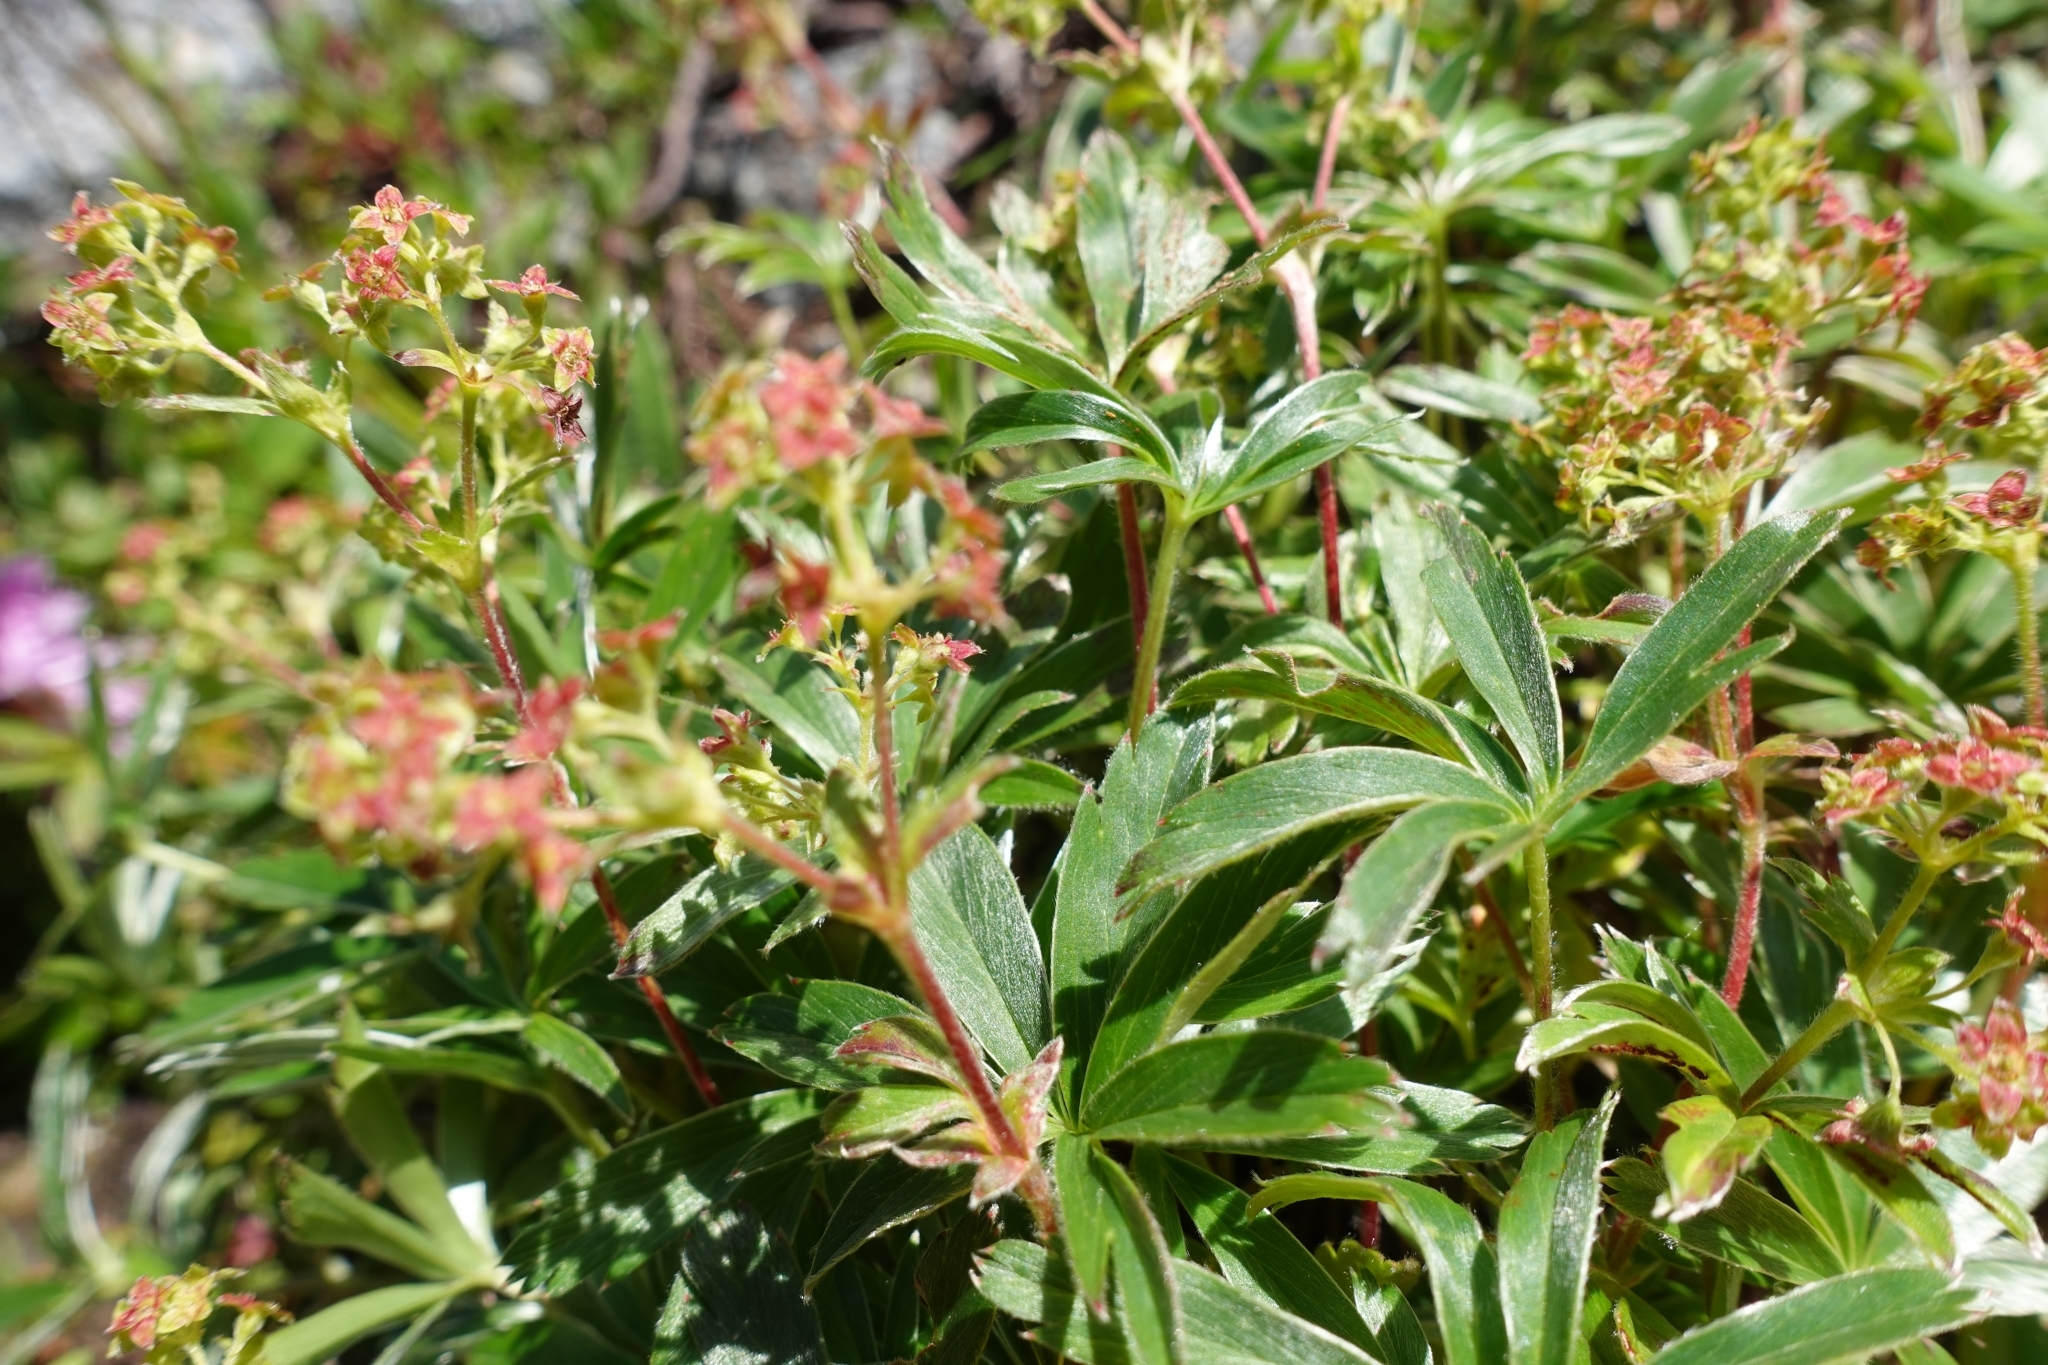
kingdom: Plantae
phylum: Tracheophyta
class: Magnoliopsida
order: Rosales
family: Rosaceae
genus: Alchemilla
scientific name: Alchemilla sericata
